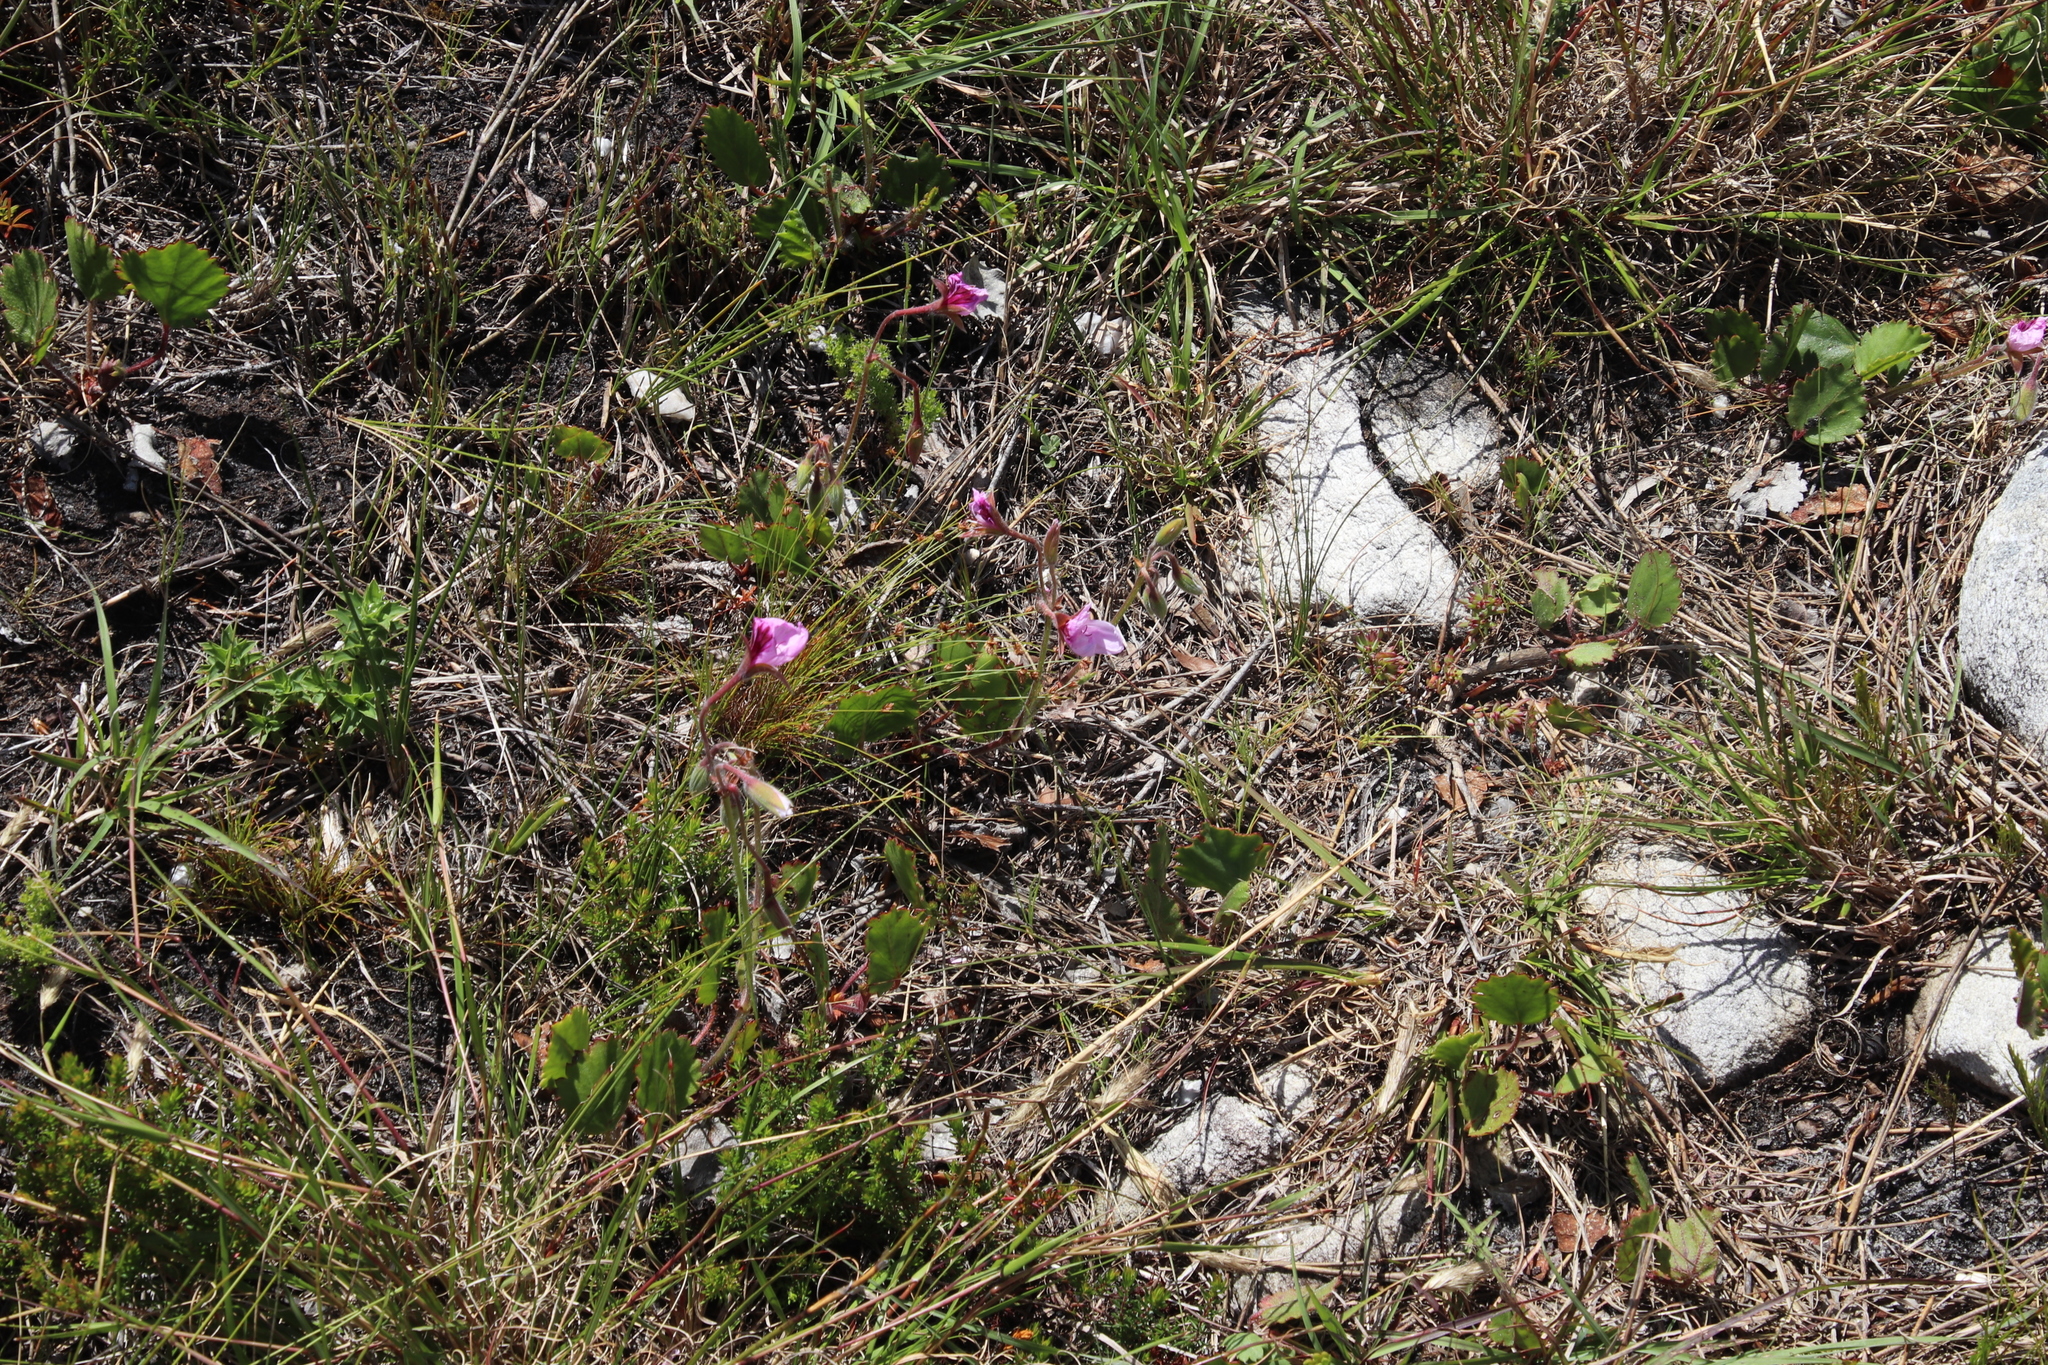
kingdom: Plantae
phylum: Tracheophyta
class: Magnoliopsida
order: Geraniales
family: Geraniaceae
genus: Pelargonium
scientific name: Pelargonium elegans
